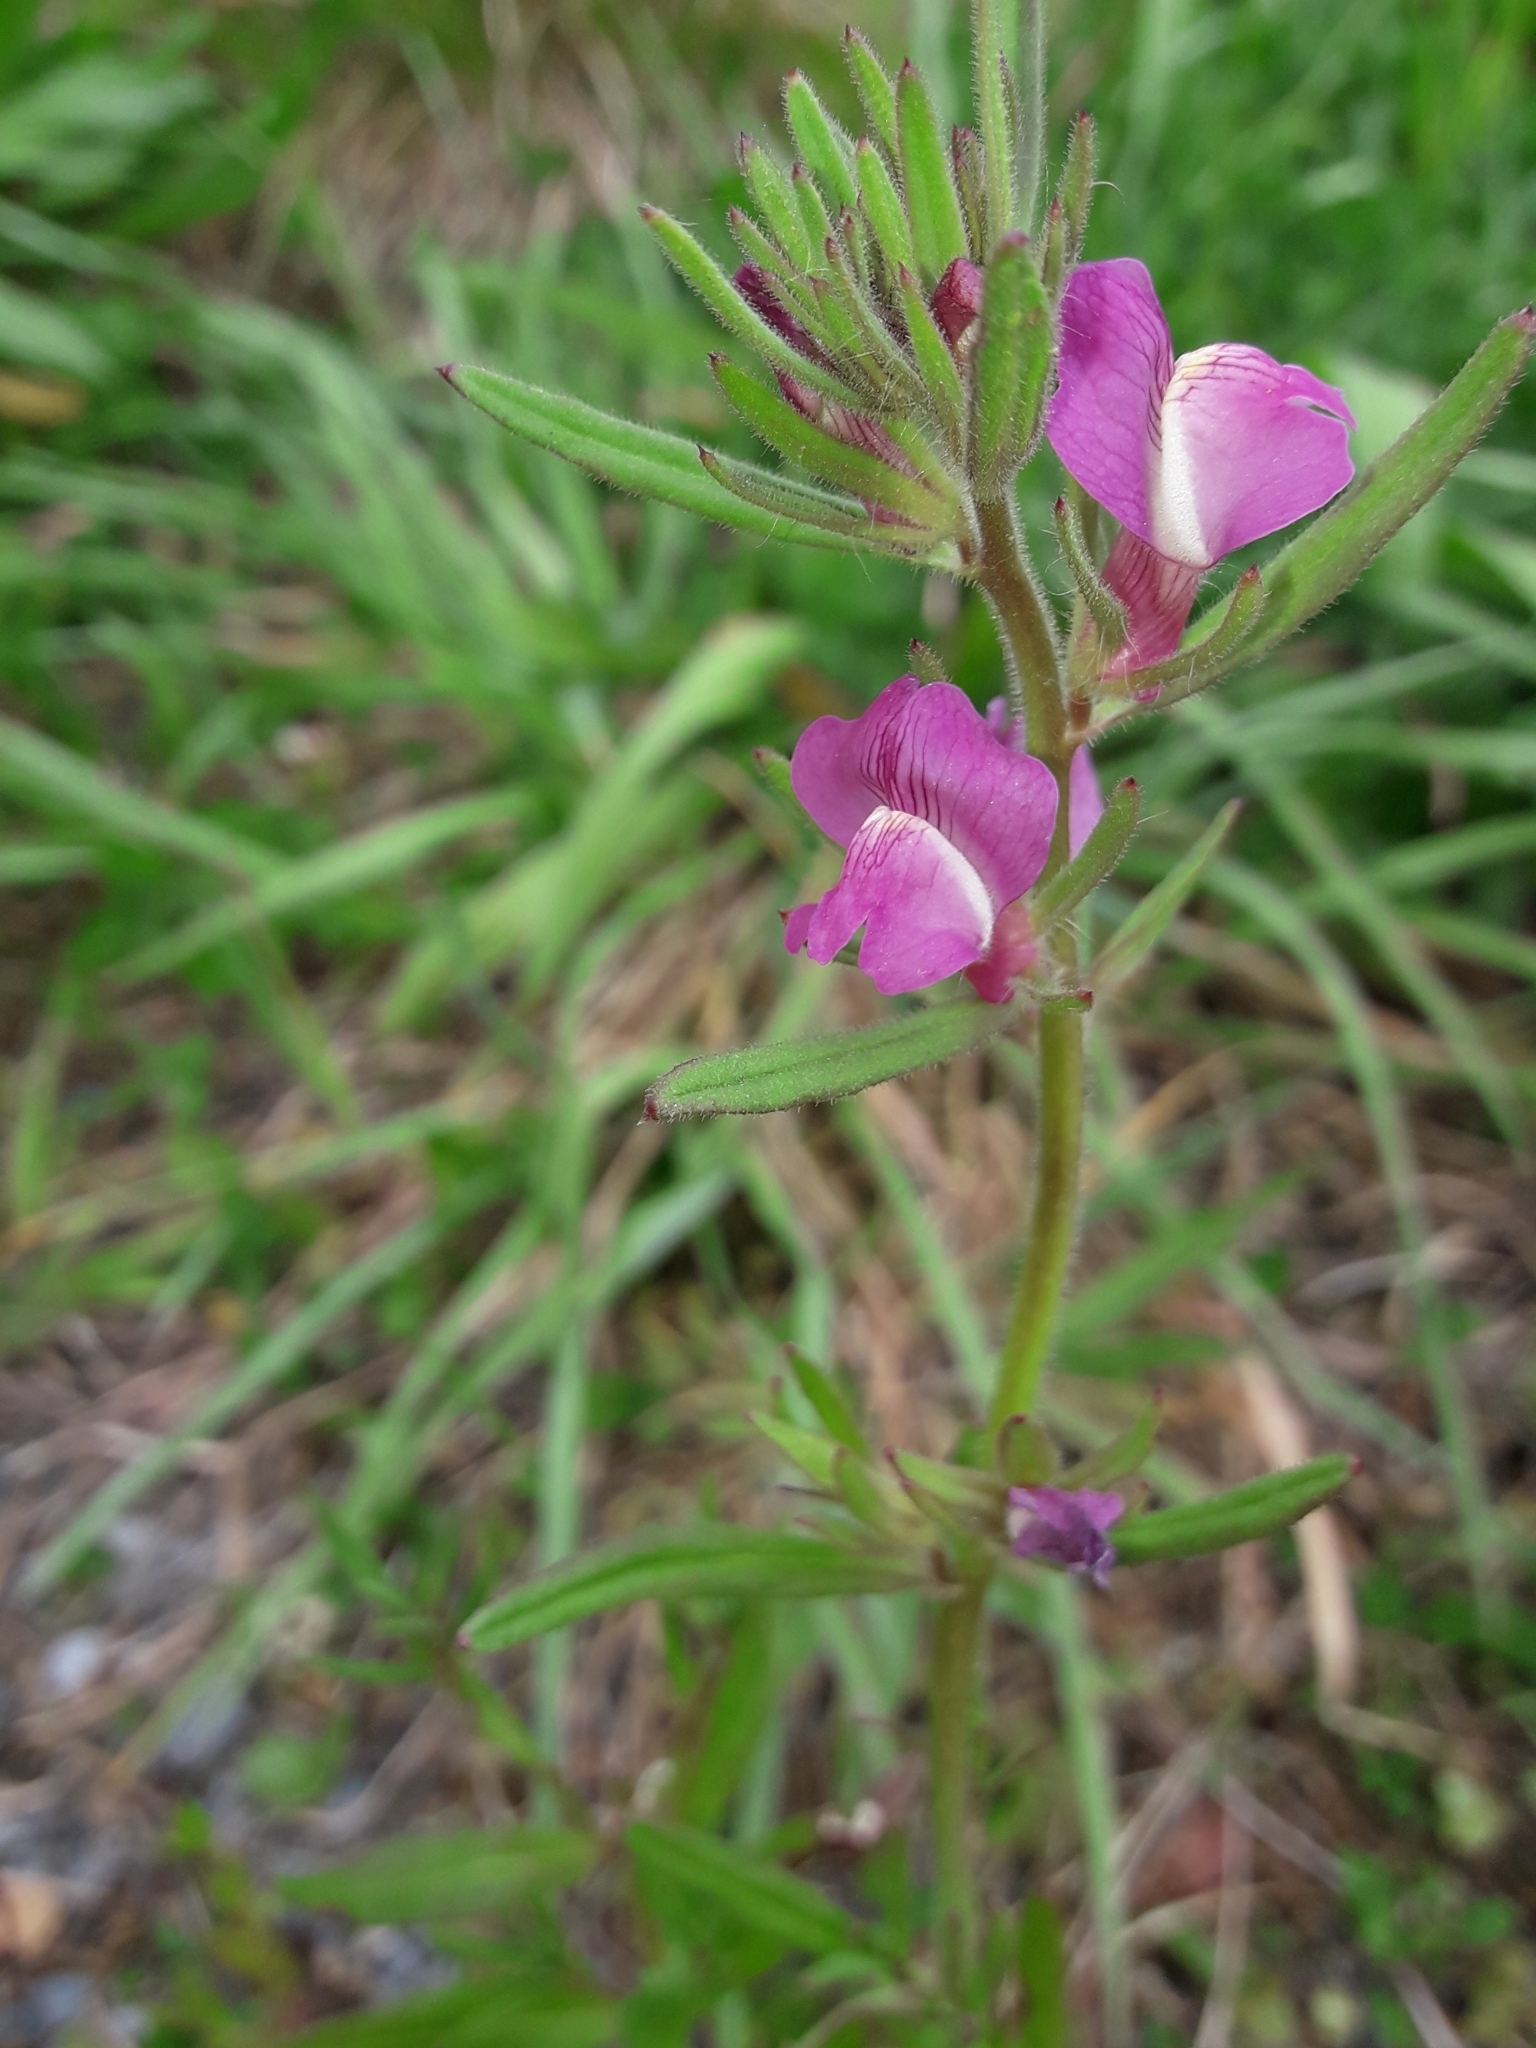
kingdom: Plantae
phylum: Tracheophyta
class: Magnoliopsida
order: Lamiales
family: Plantaginaceae
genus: Misopates
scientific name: Misopates orontium
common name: Weasel's-snout
